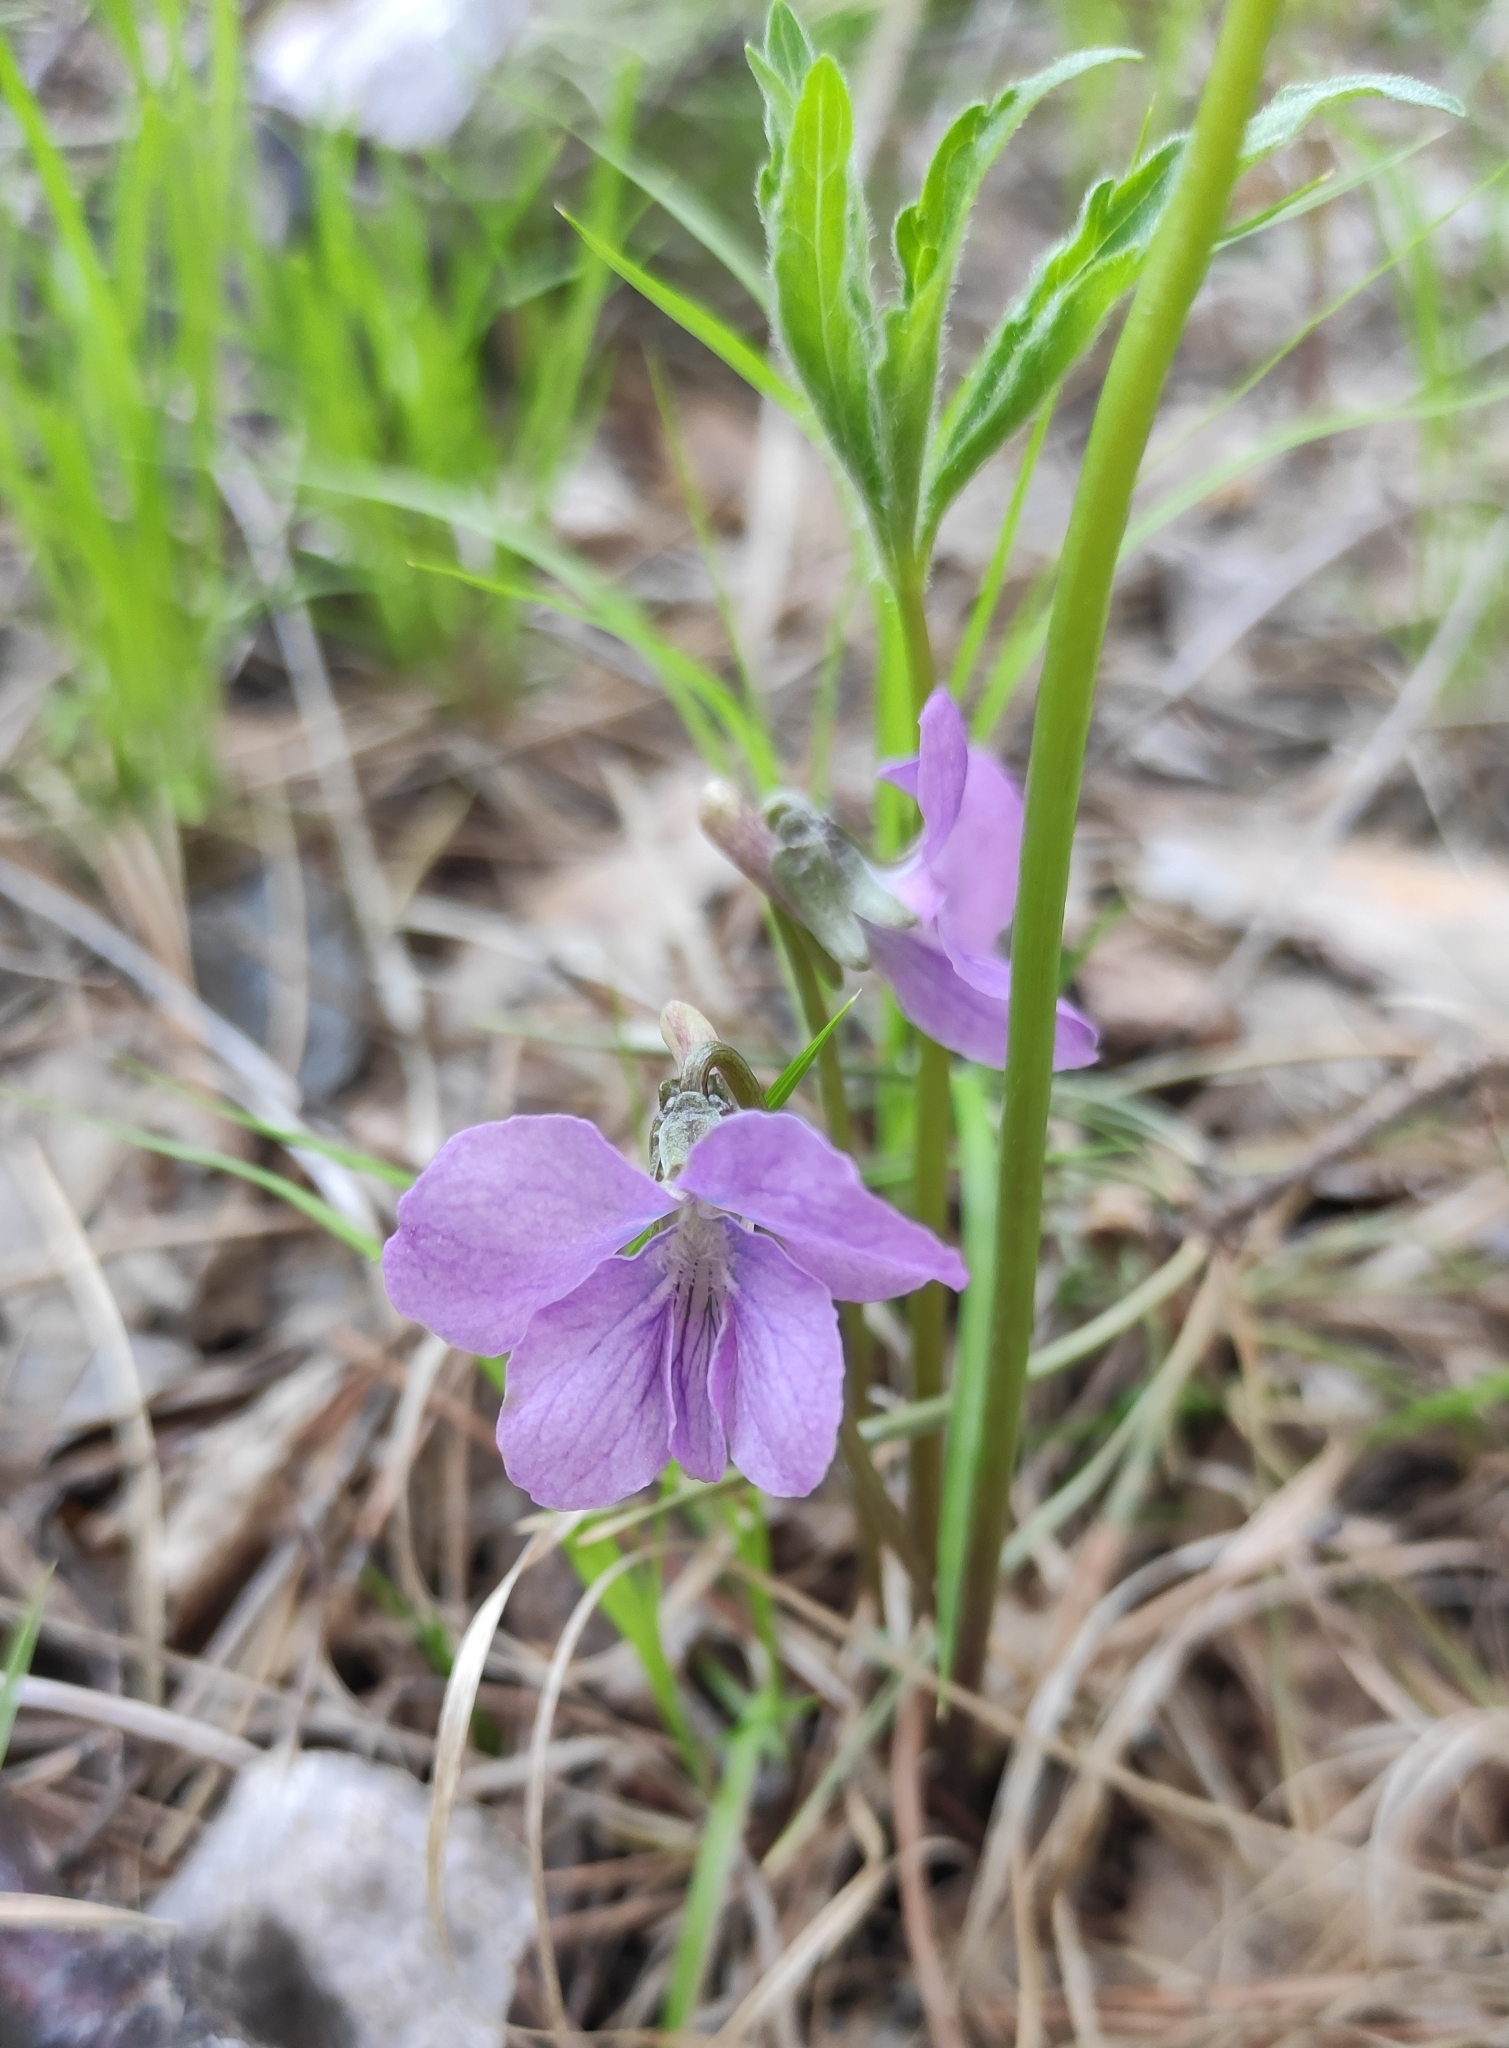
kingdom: Plantae
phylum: Tracheophyta
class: Magnoliopsida
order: Malpighiales
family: Violaceae
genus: Viola
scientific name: Viola dactyloides
